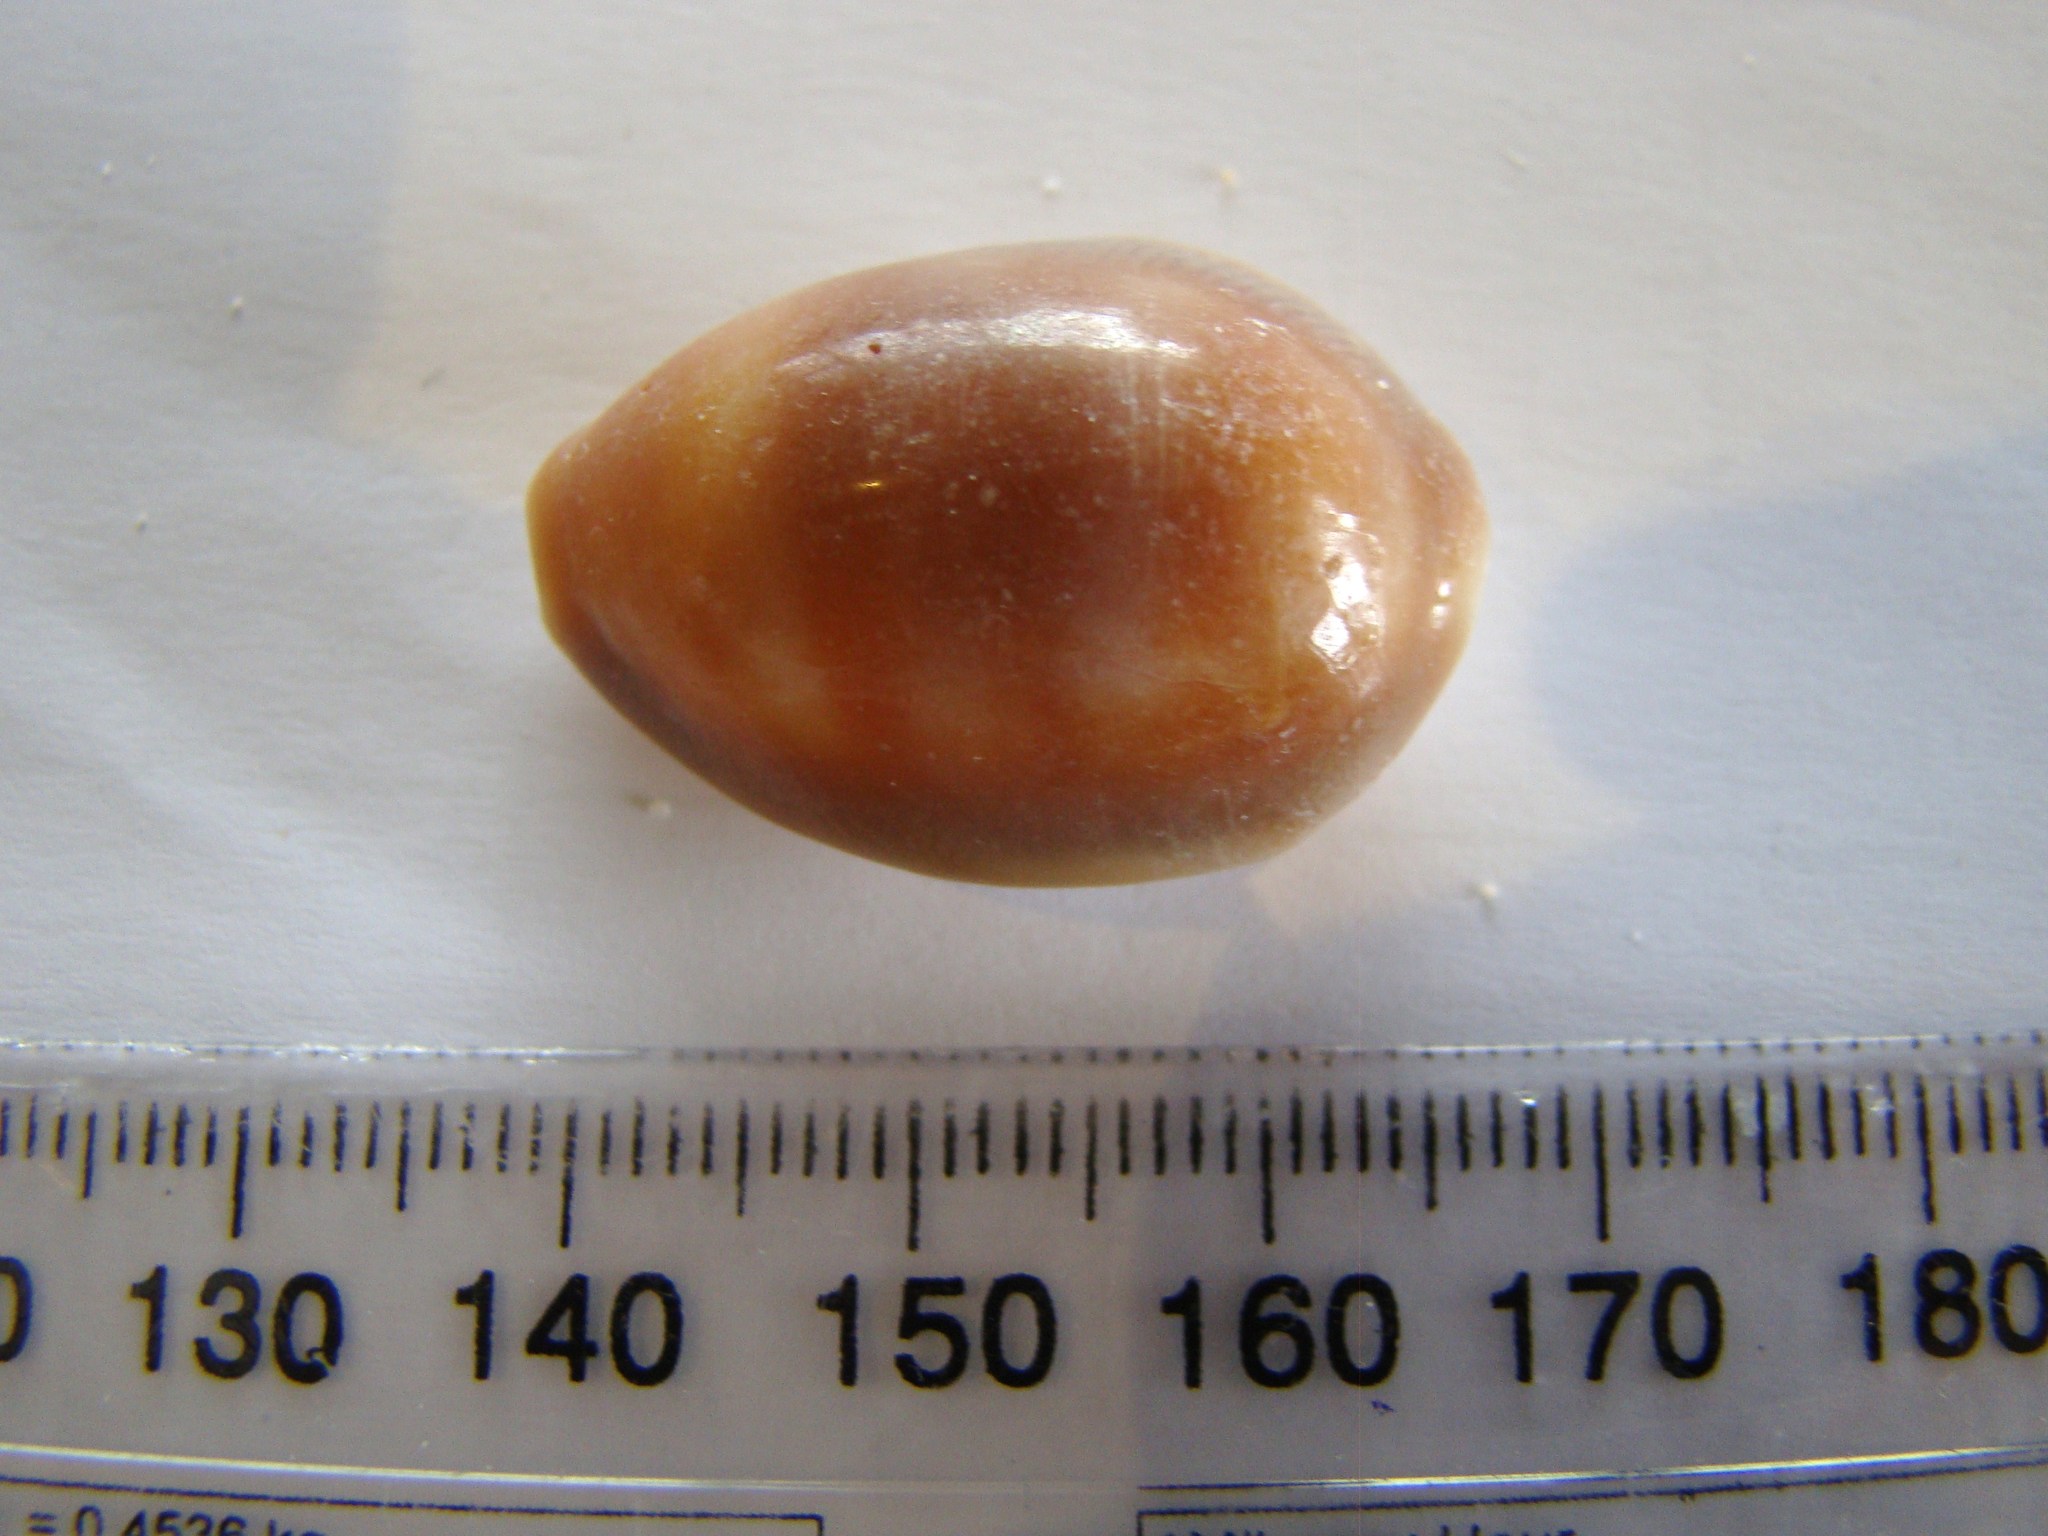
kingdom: Animalia
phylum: Mollusca
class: Gastropoda
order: Littorinimorpha
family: Cypraeidae
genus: Lyncina
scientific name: Lyncina schilderorum
